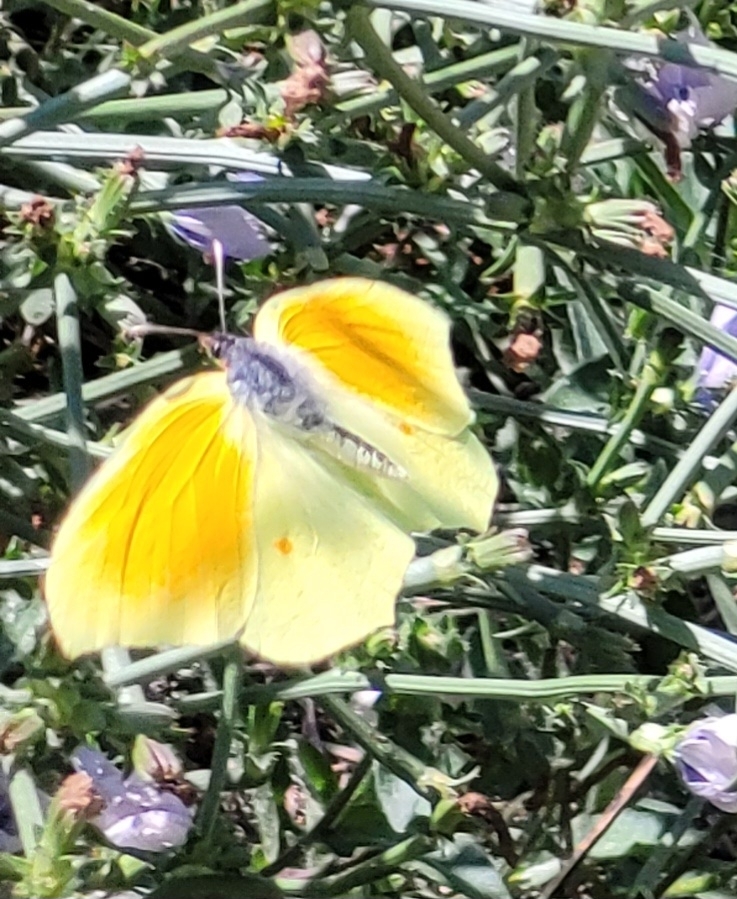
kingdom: Animalia
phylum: Arthropoda
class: Insecta
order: Lepidoptera
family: Pieridae
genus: Gonepteryx
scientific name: Gonepteryx cleopatra
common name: Cleopatra
